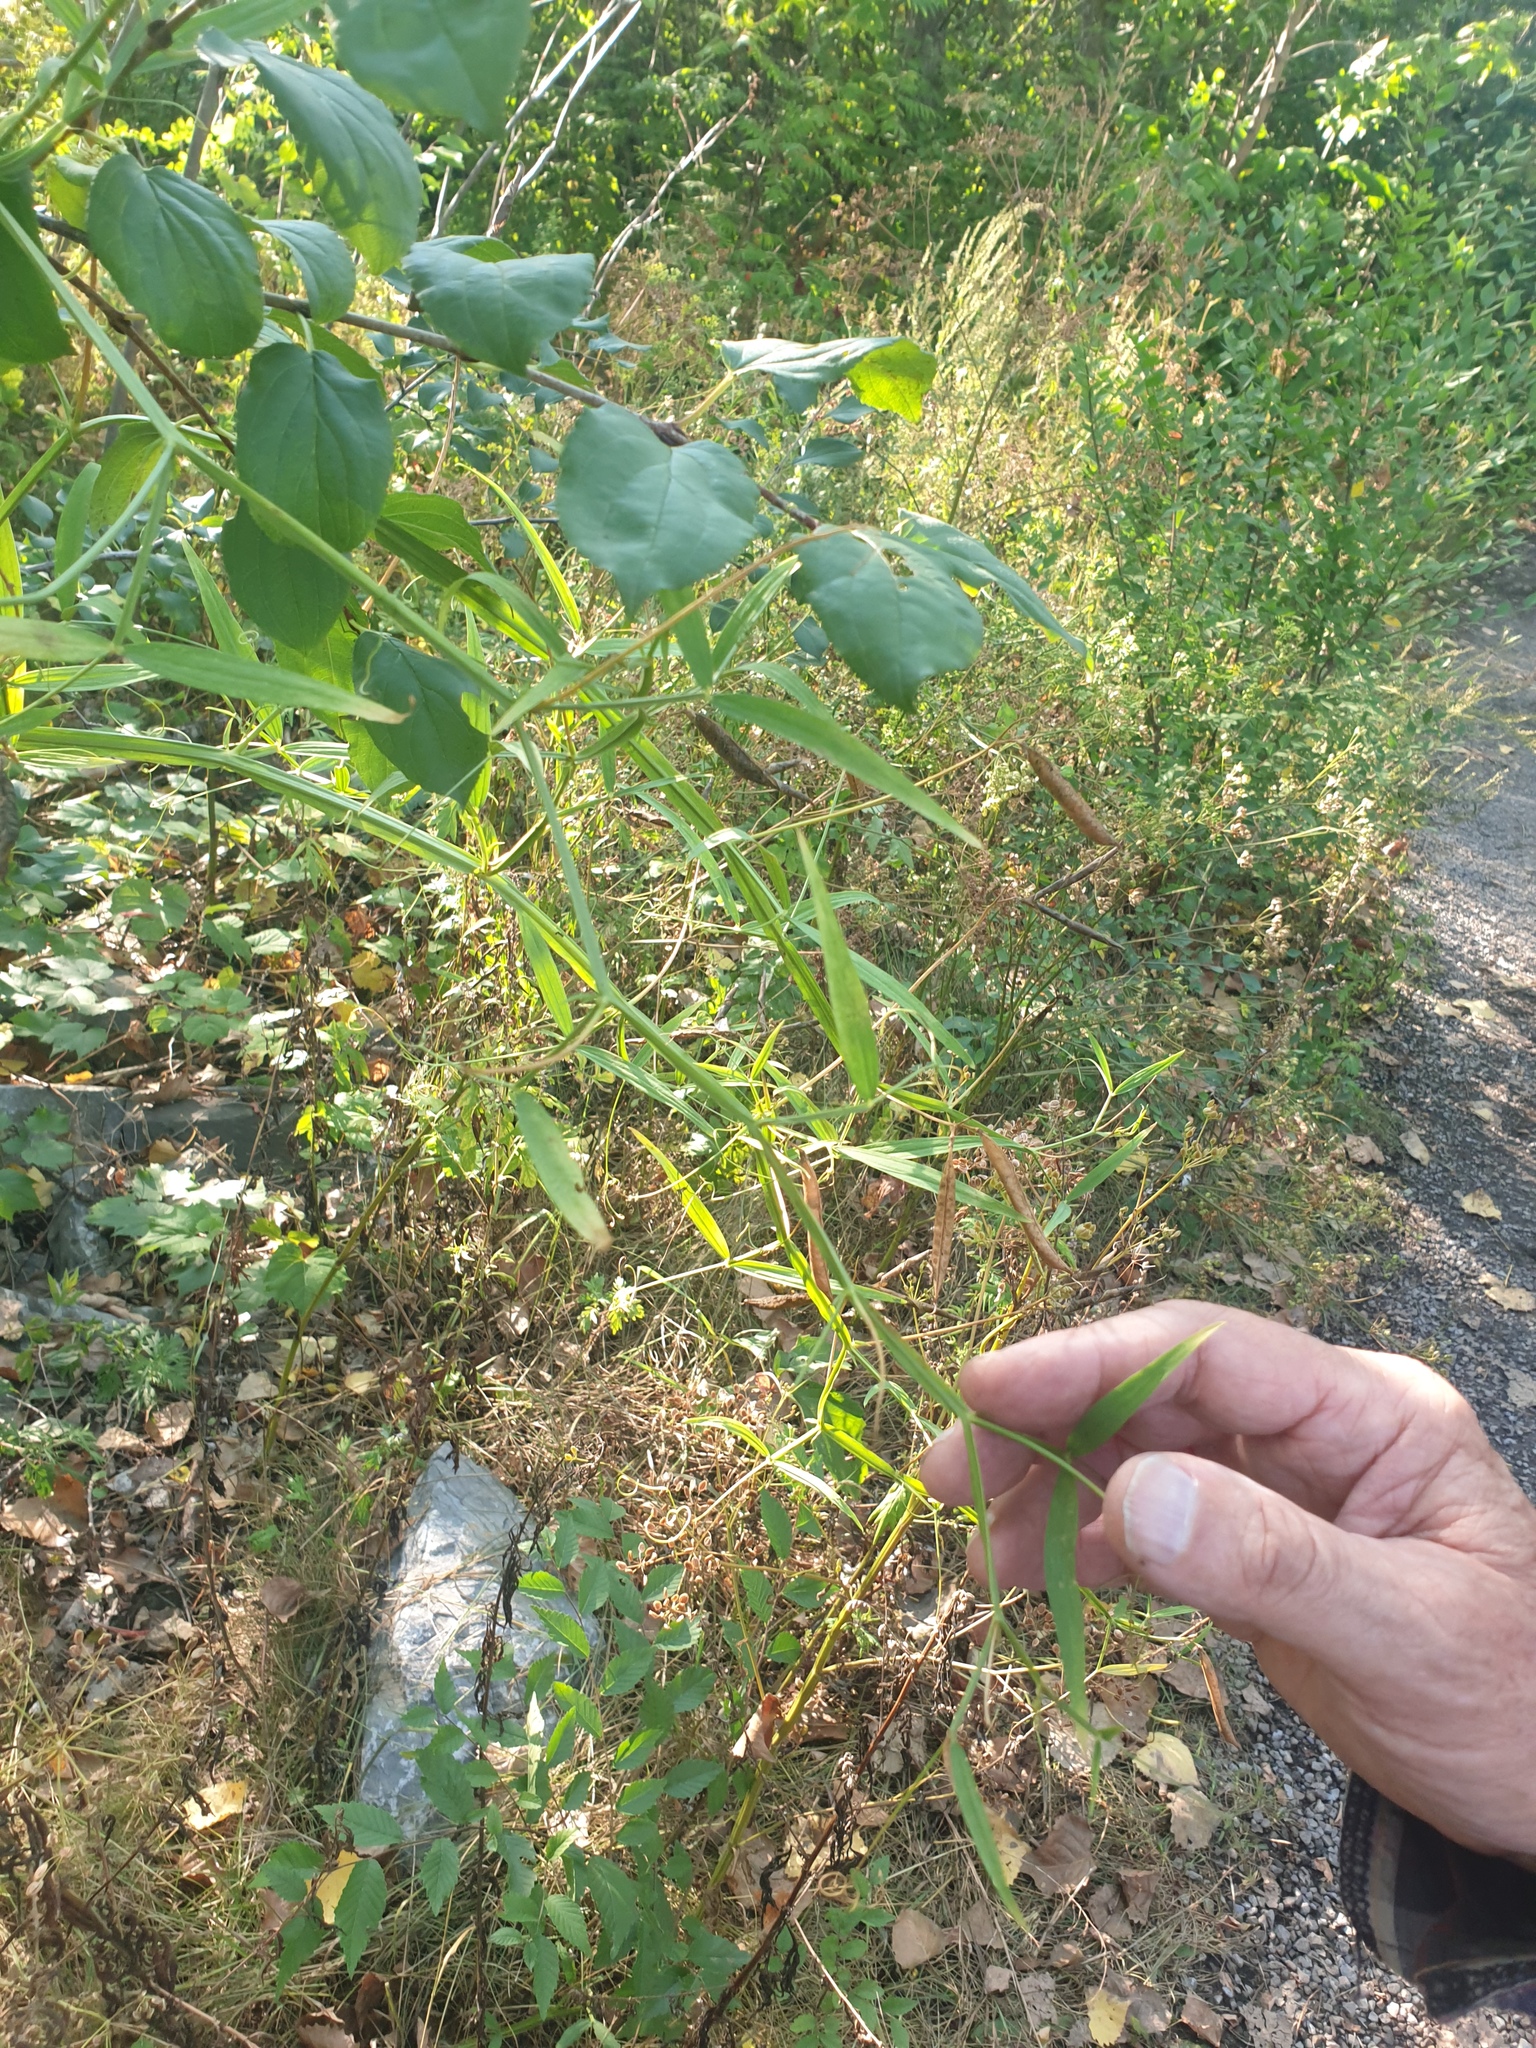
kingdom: Plantae
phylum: Tracheophyta
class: Magnoliopsida
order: Fabales
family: Fabaceae
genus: Lathyrus
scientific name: Lathyrus sylvestris
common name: Flat pea
